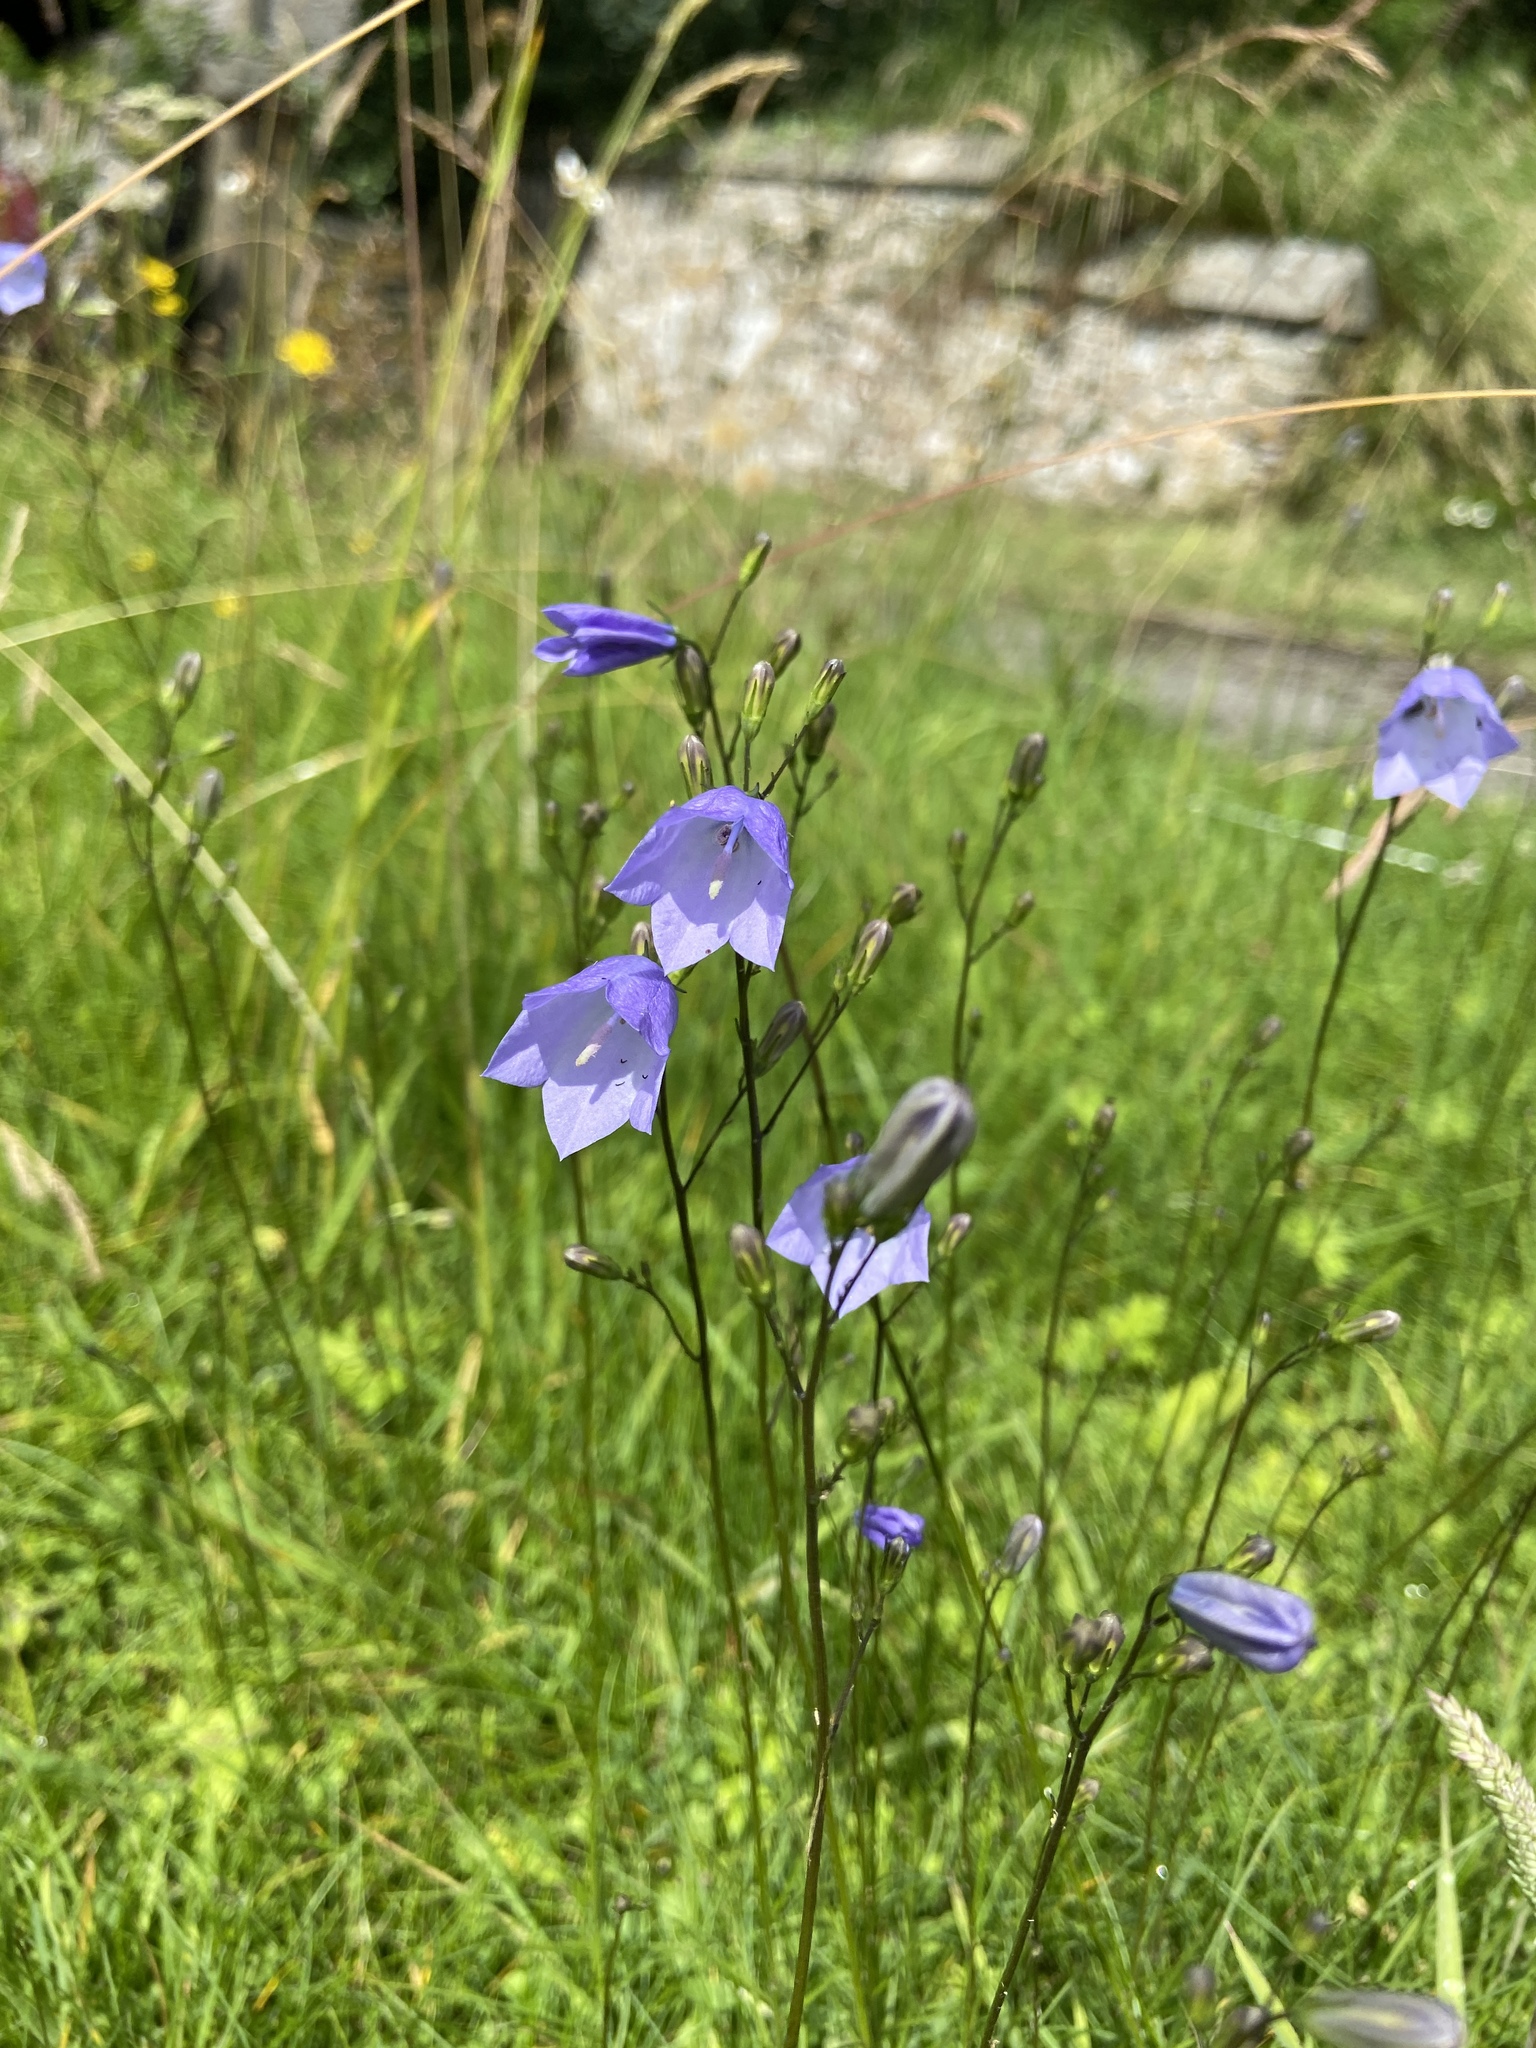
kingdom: Plantae
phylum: Tracheophyta
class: Magnoliopsida
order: Asterales
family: Campanulaceae
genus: Campanula
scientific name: Campanula rotundifolia
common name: Harebell
